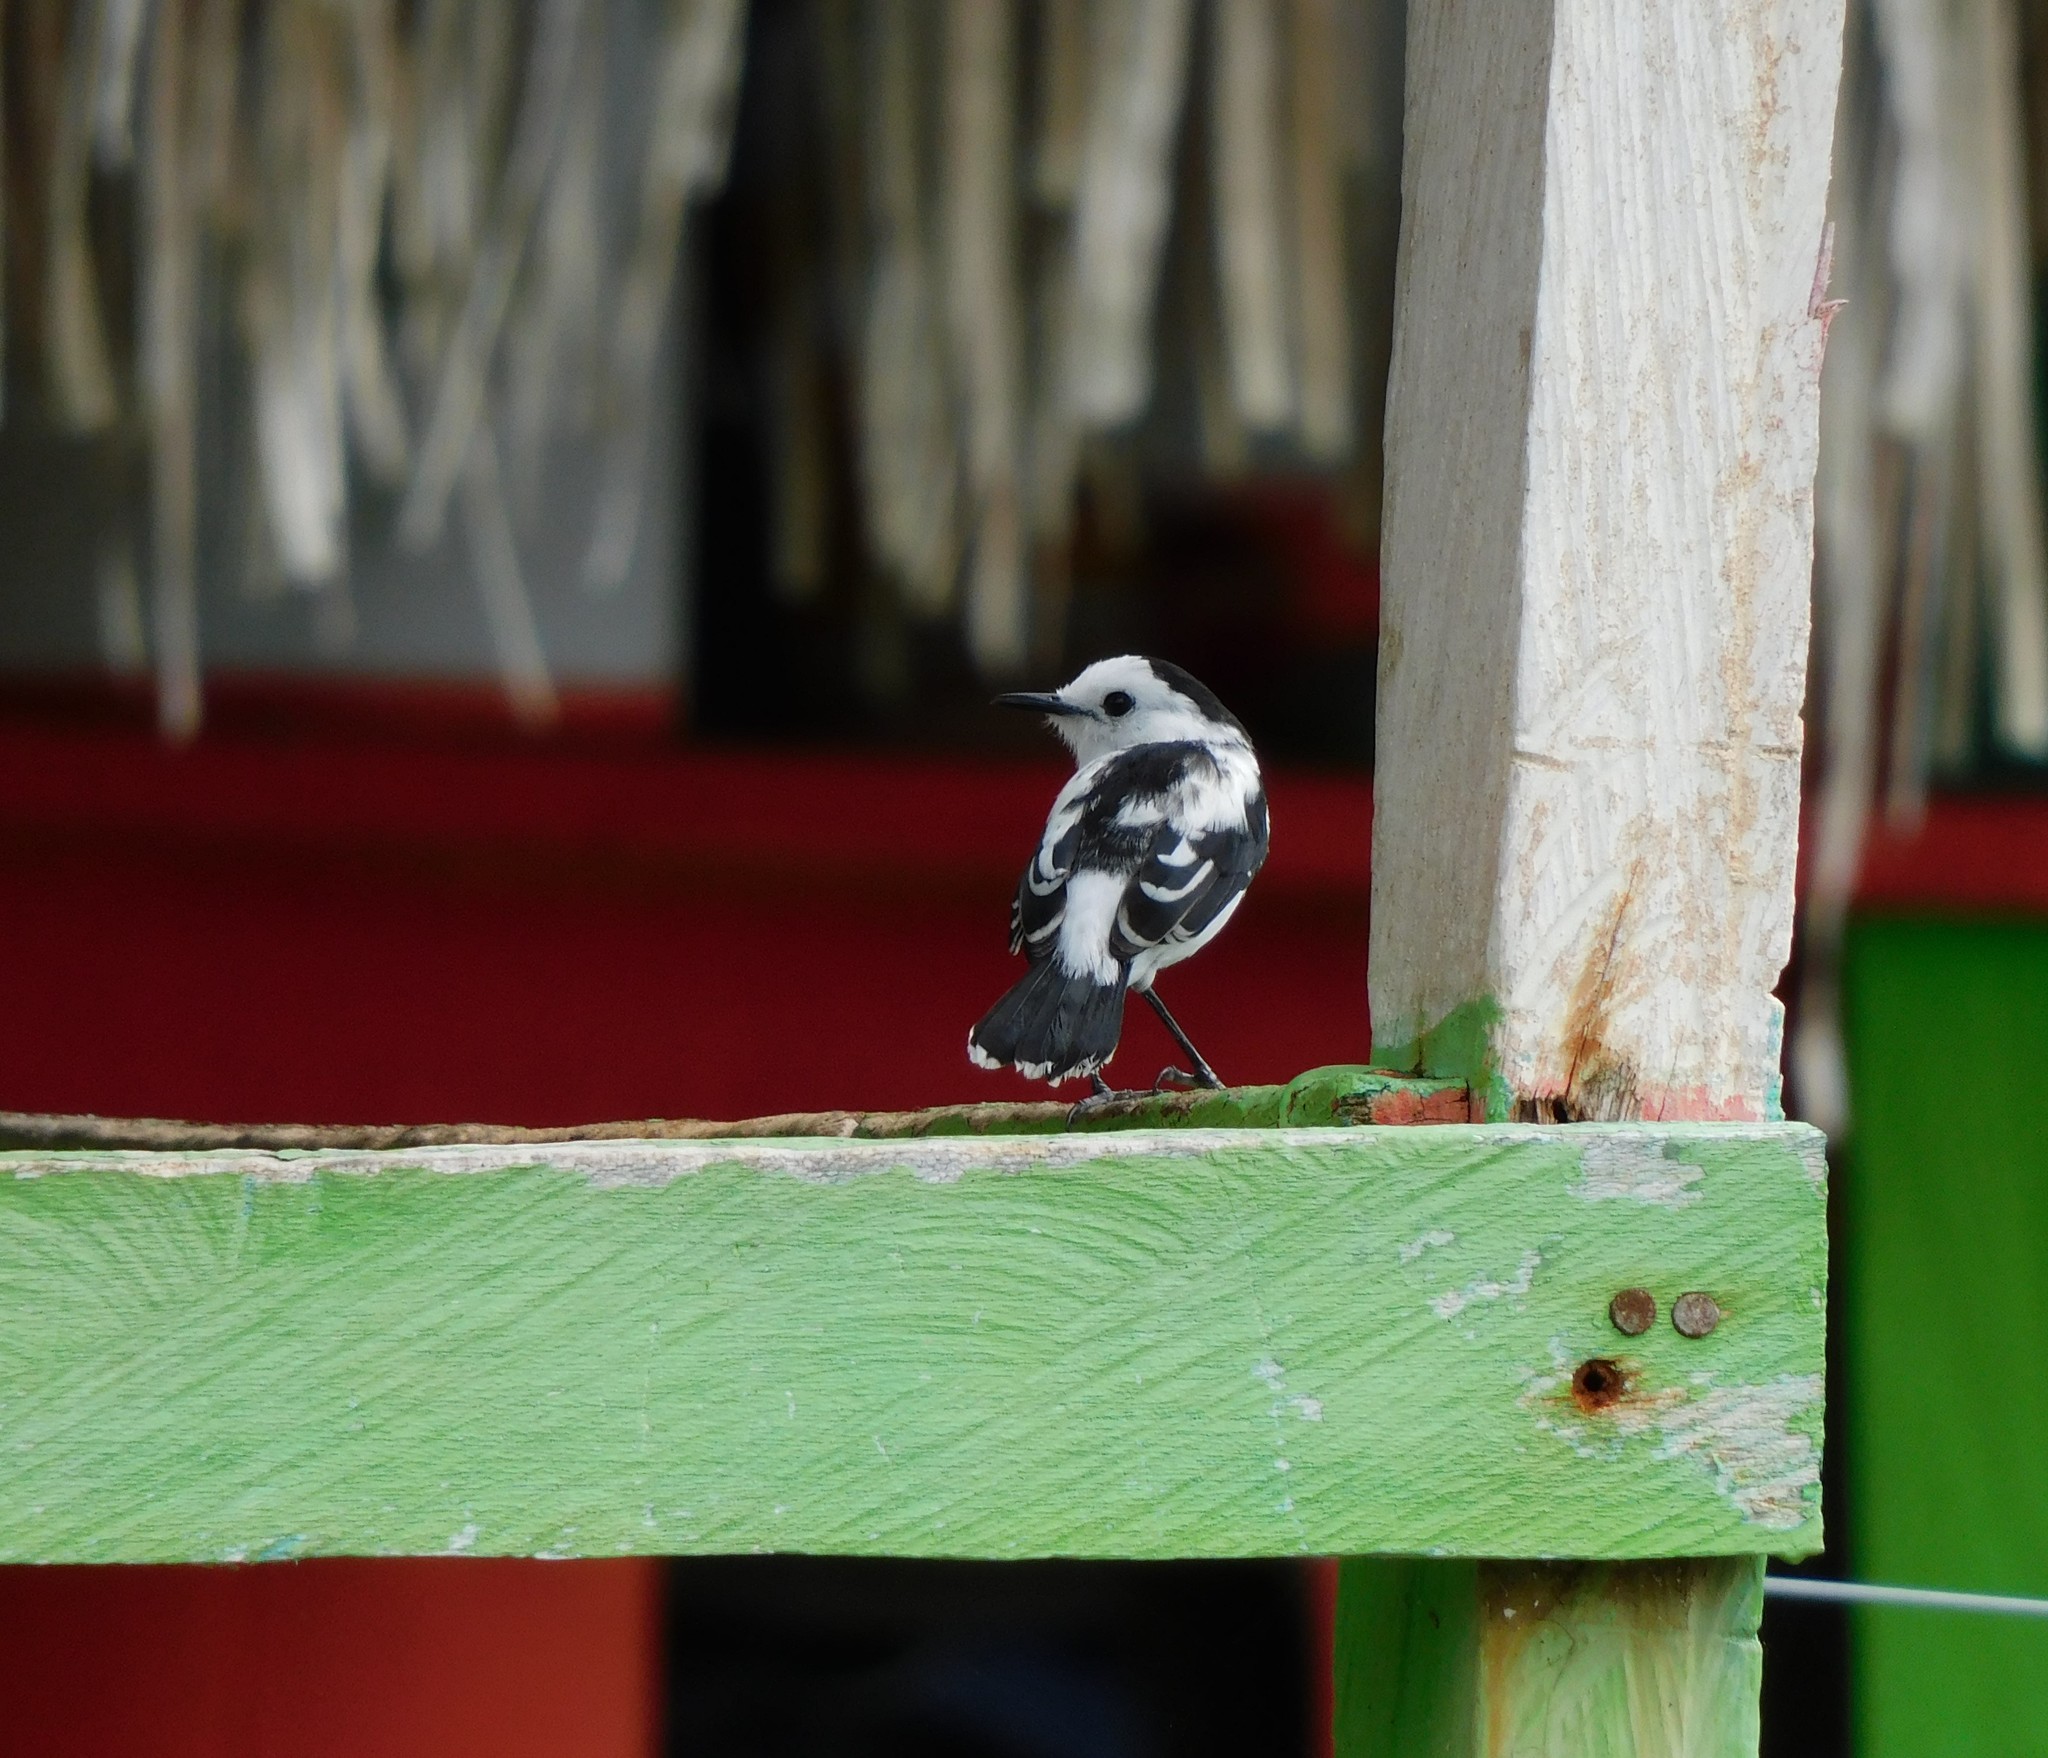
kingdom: Animalia
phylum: Chordata
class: Aves
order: Passeriformes
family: Tyrannidae
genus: Fluvicola
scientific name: Fluvicola pica
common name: Pied water-tyrant
